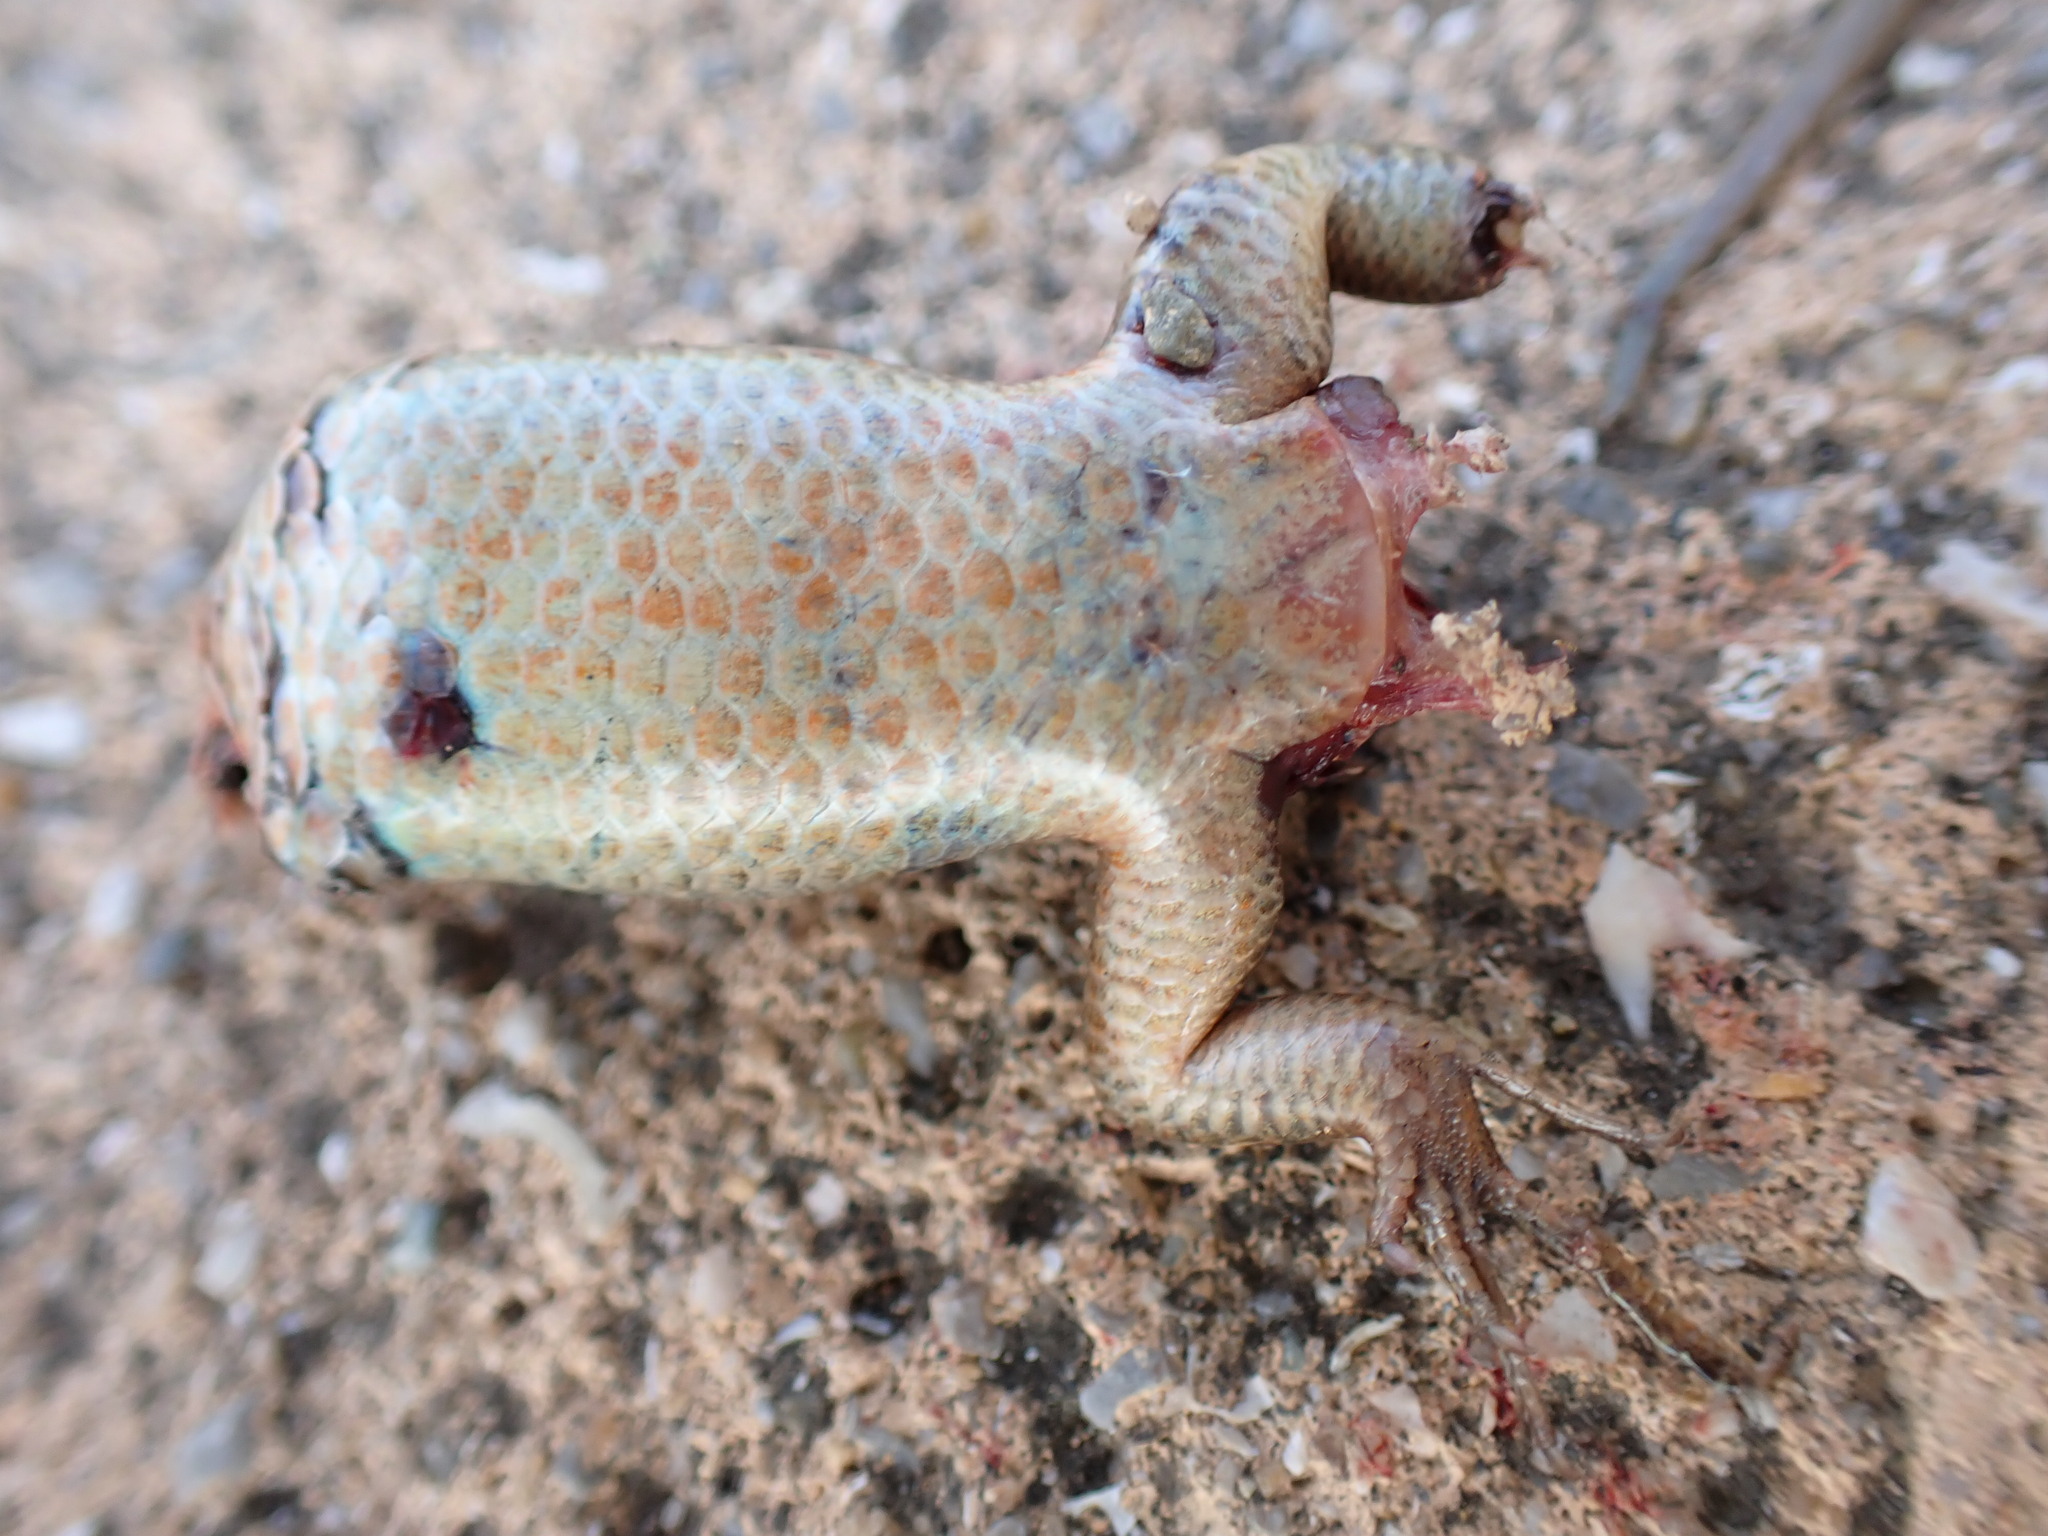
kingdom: Animalia
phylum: Chordata
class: Squamata
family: Scincidae
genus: Plestiodon
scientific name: Plestiodon japonicus
